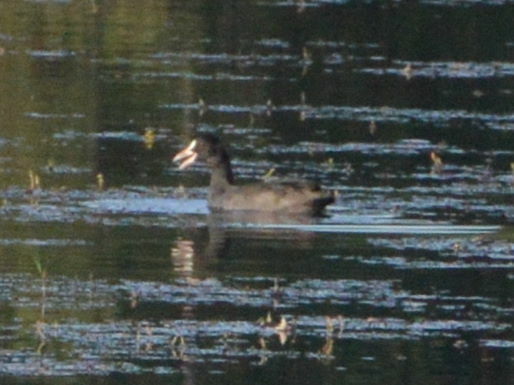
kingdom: Animalia
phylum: Chordata
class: Aves
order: Gruiformes
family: Rallidae
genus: Fulica
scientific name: Fulica atra
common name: Eurasian coot
